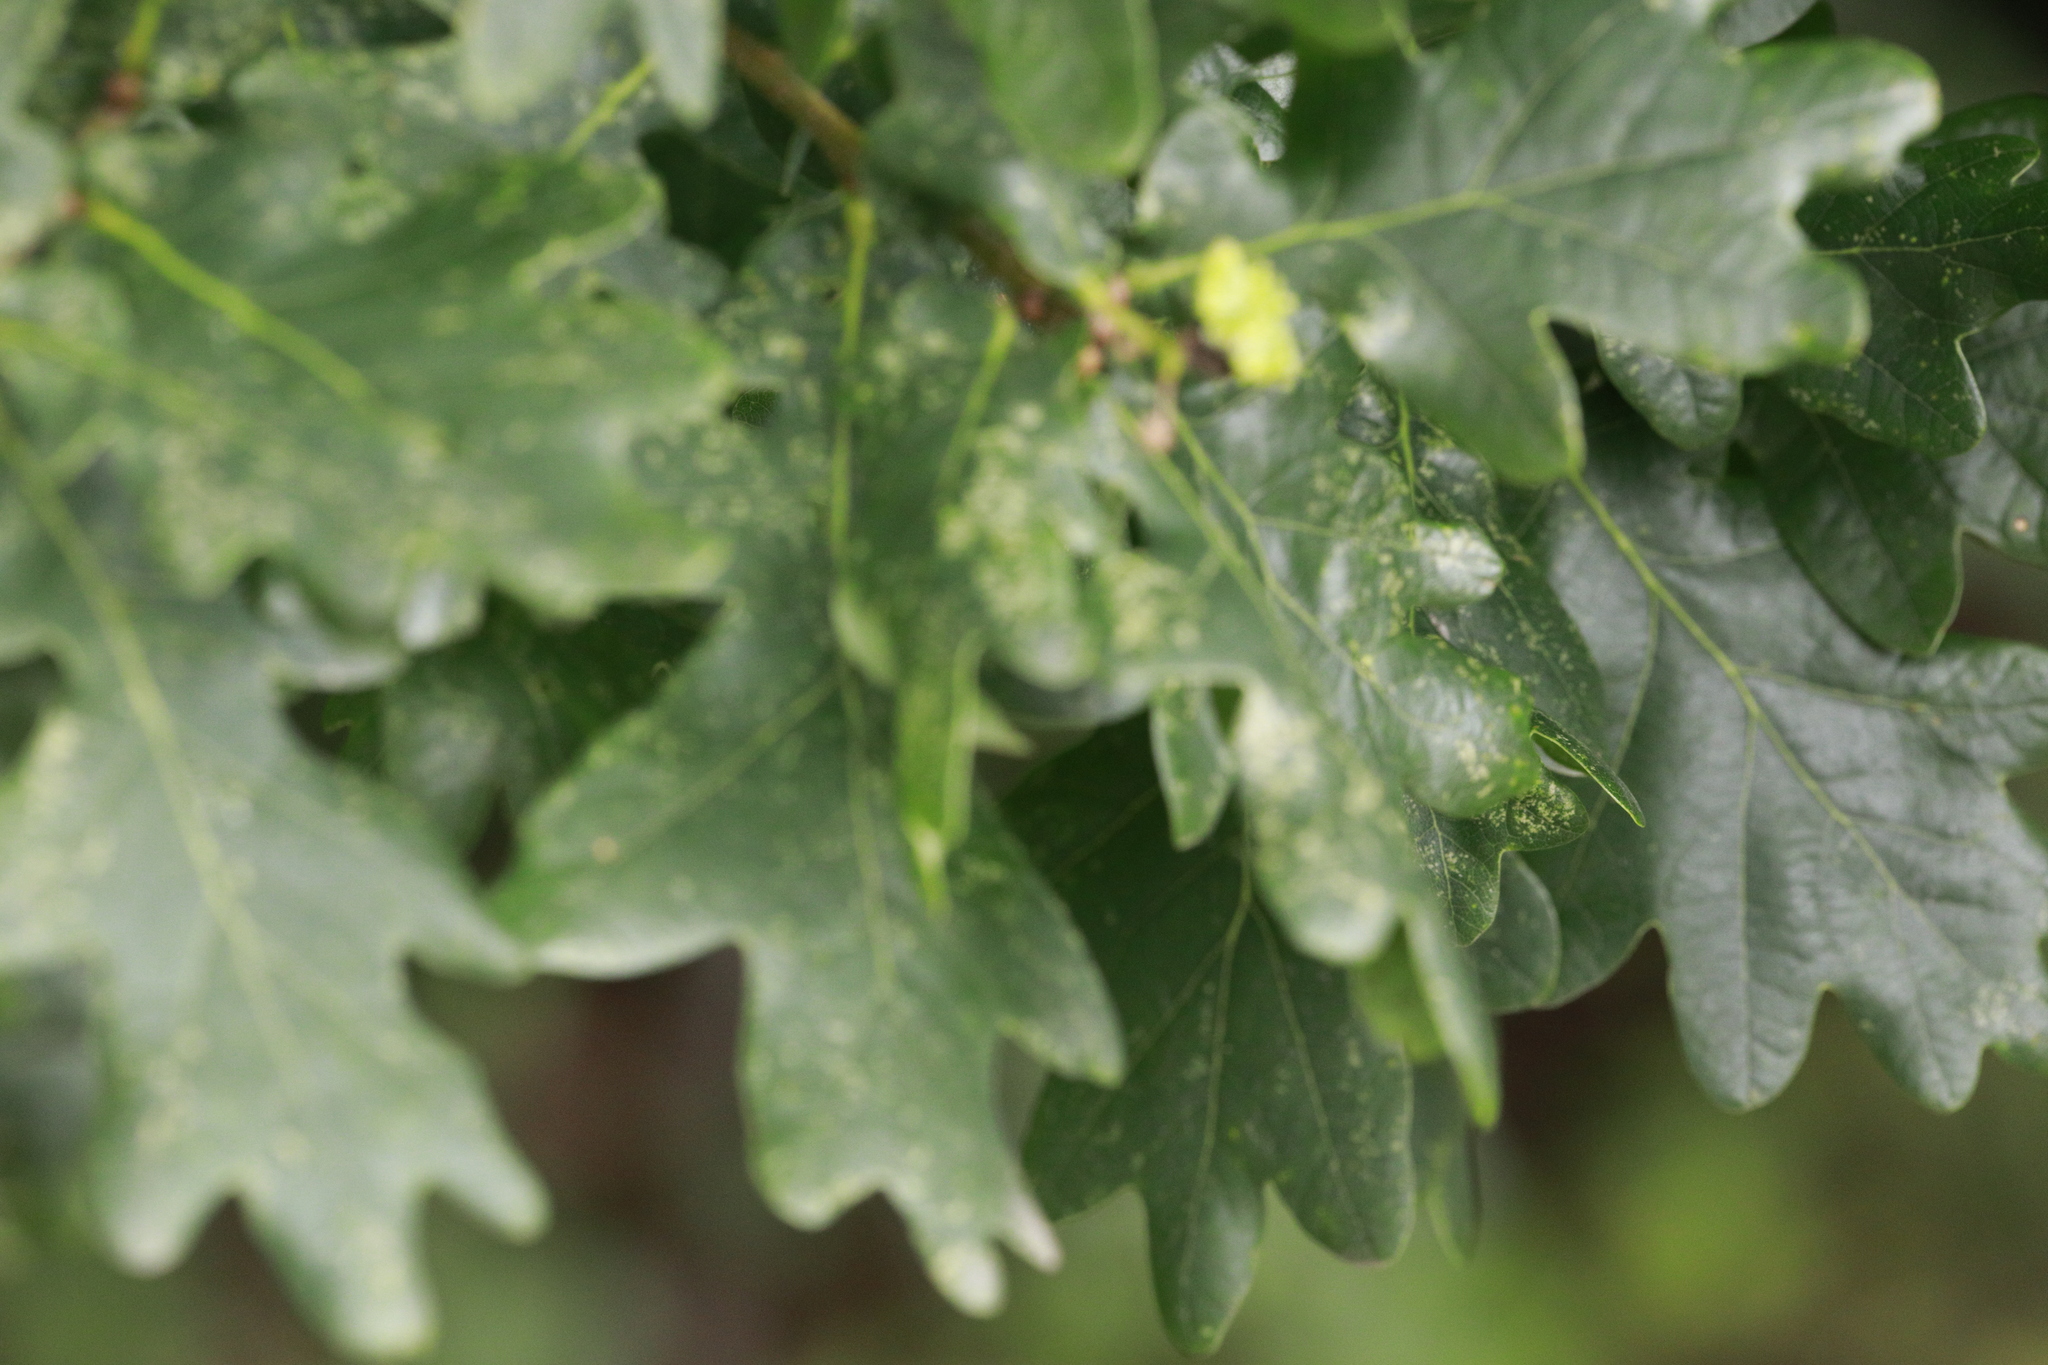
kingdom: Plantae
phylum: Tracheophyta
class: Magnoliopsida
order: Fagales
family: Fagaceae
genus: Quercus
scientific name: Quercus robur
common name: Pedunculate oak
